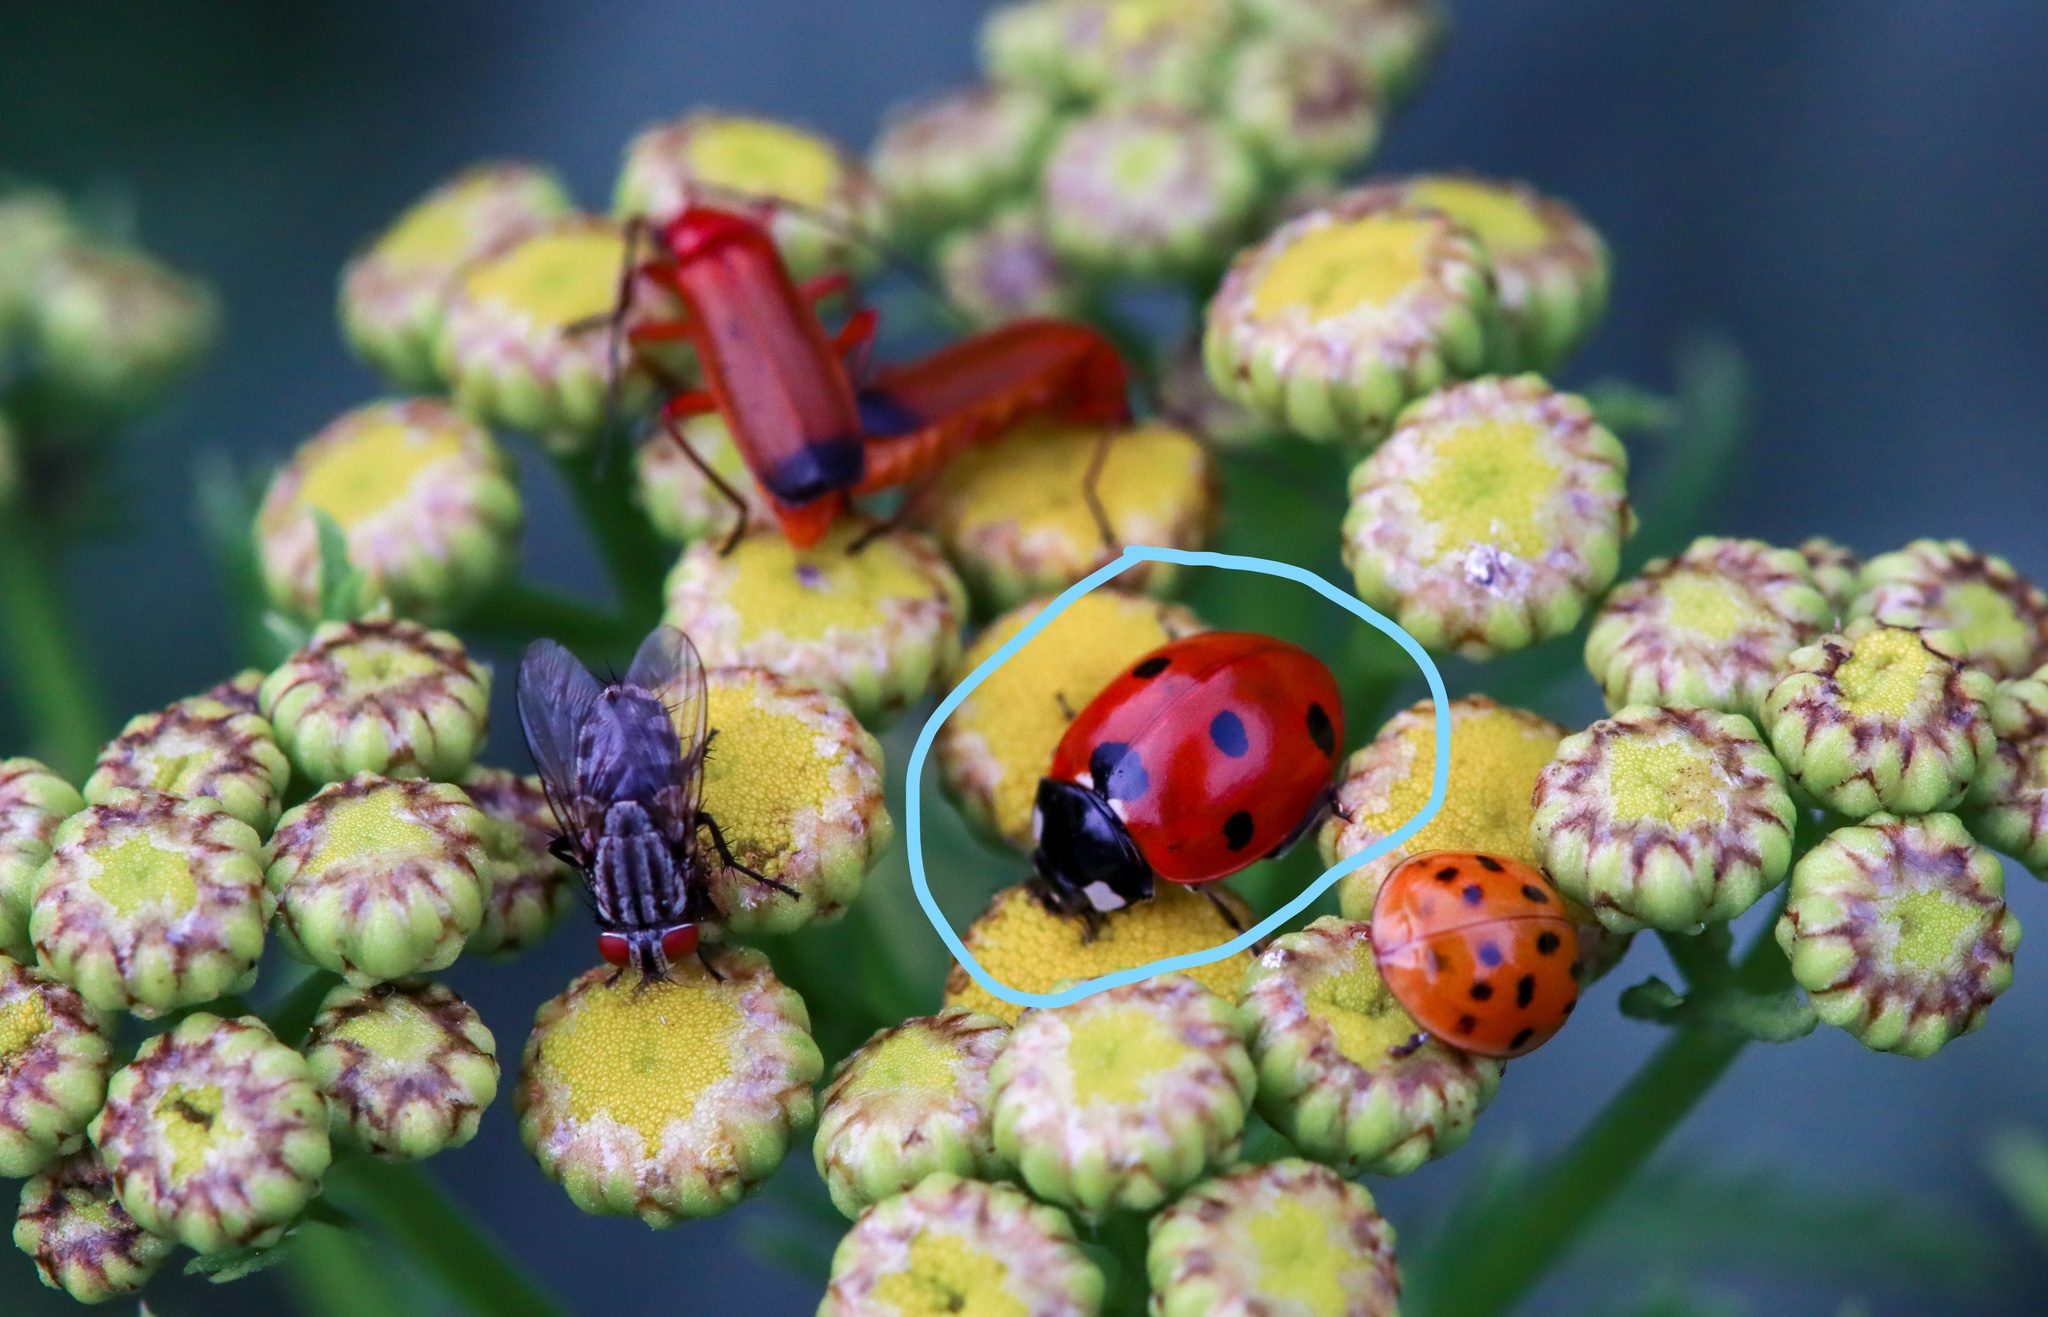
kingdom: Animalia
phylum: Arthropoda
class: Insecta
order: Coleoptera
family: Coccinellidae
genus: Coccinella
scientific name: Coccinella septempunctata
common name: Sevenspotted lady beetle
